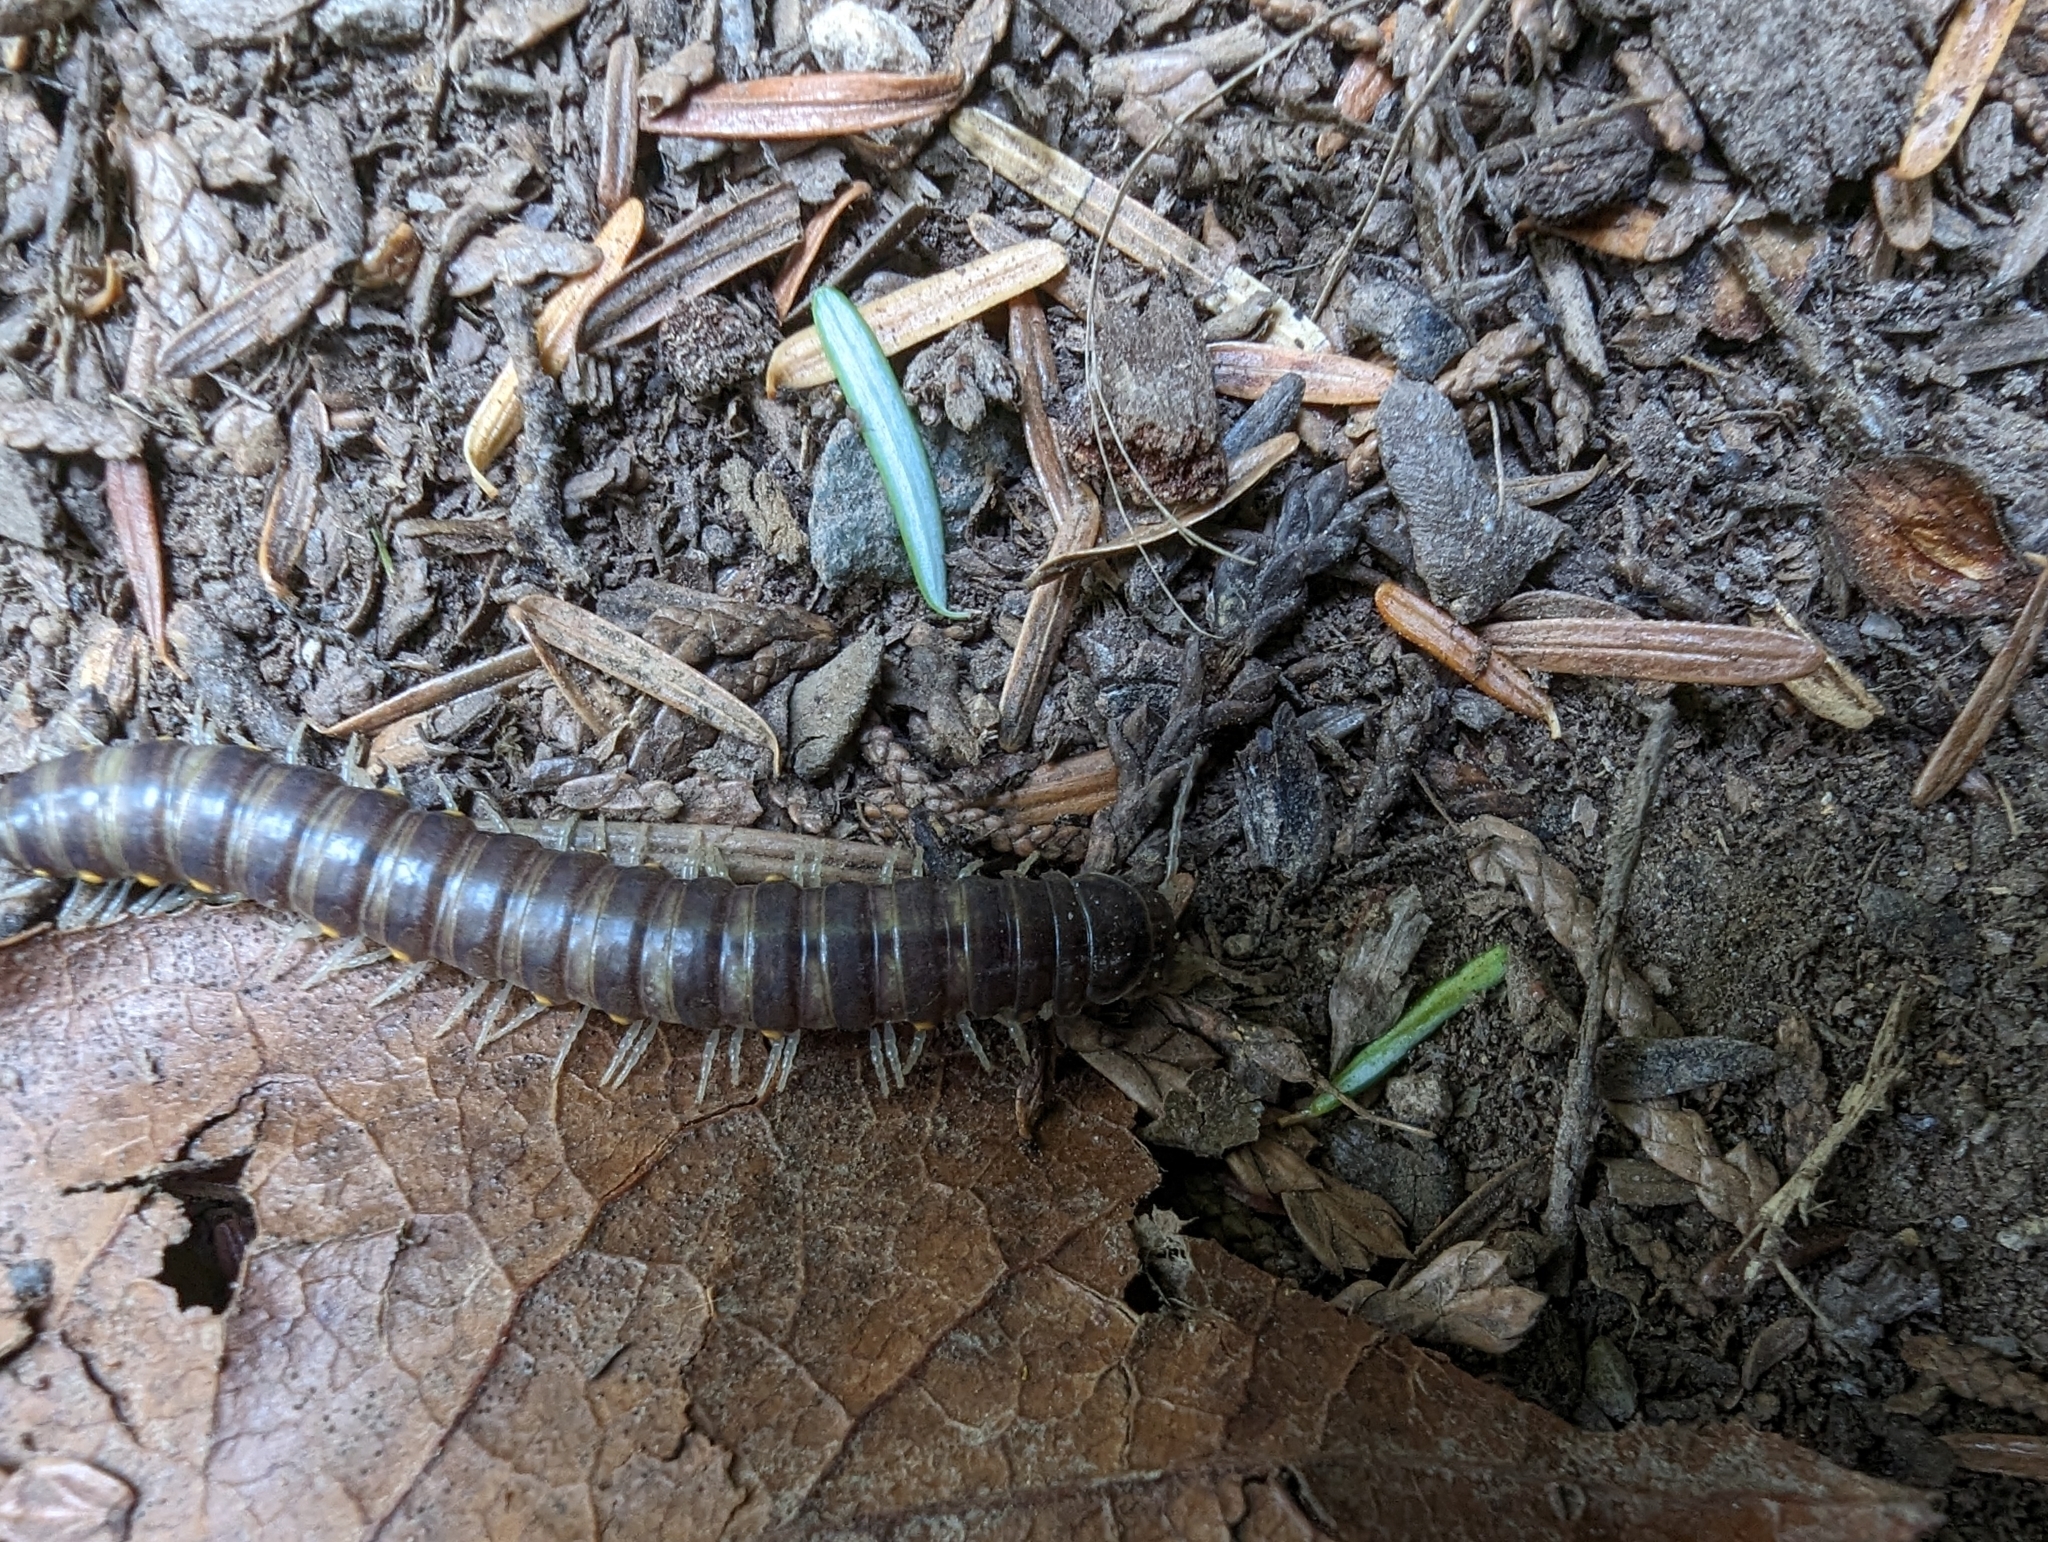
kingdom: Animalia
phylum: Arthropoda
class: Diplopoda
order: Polydesmida
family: Xystodesmidae
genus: Tubaphe
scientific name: Tubaphe levii
